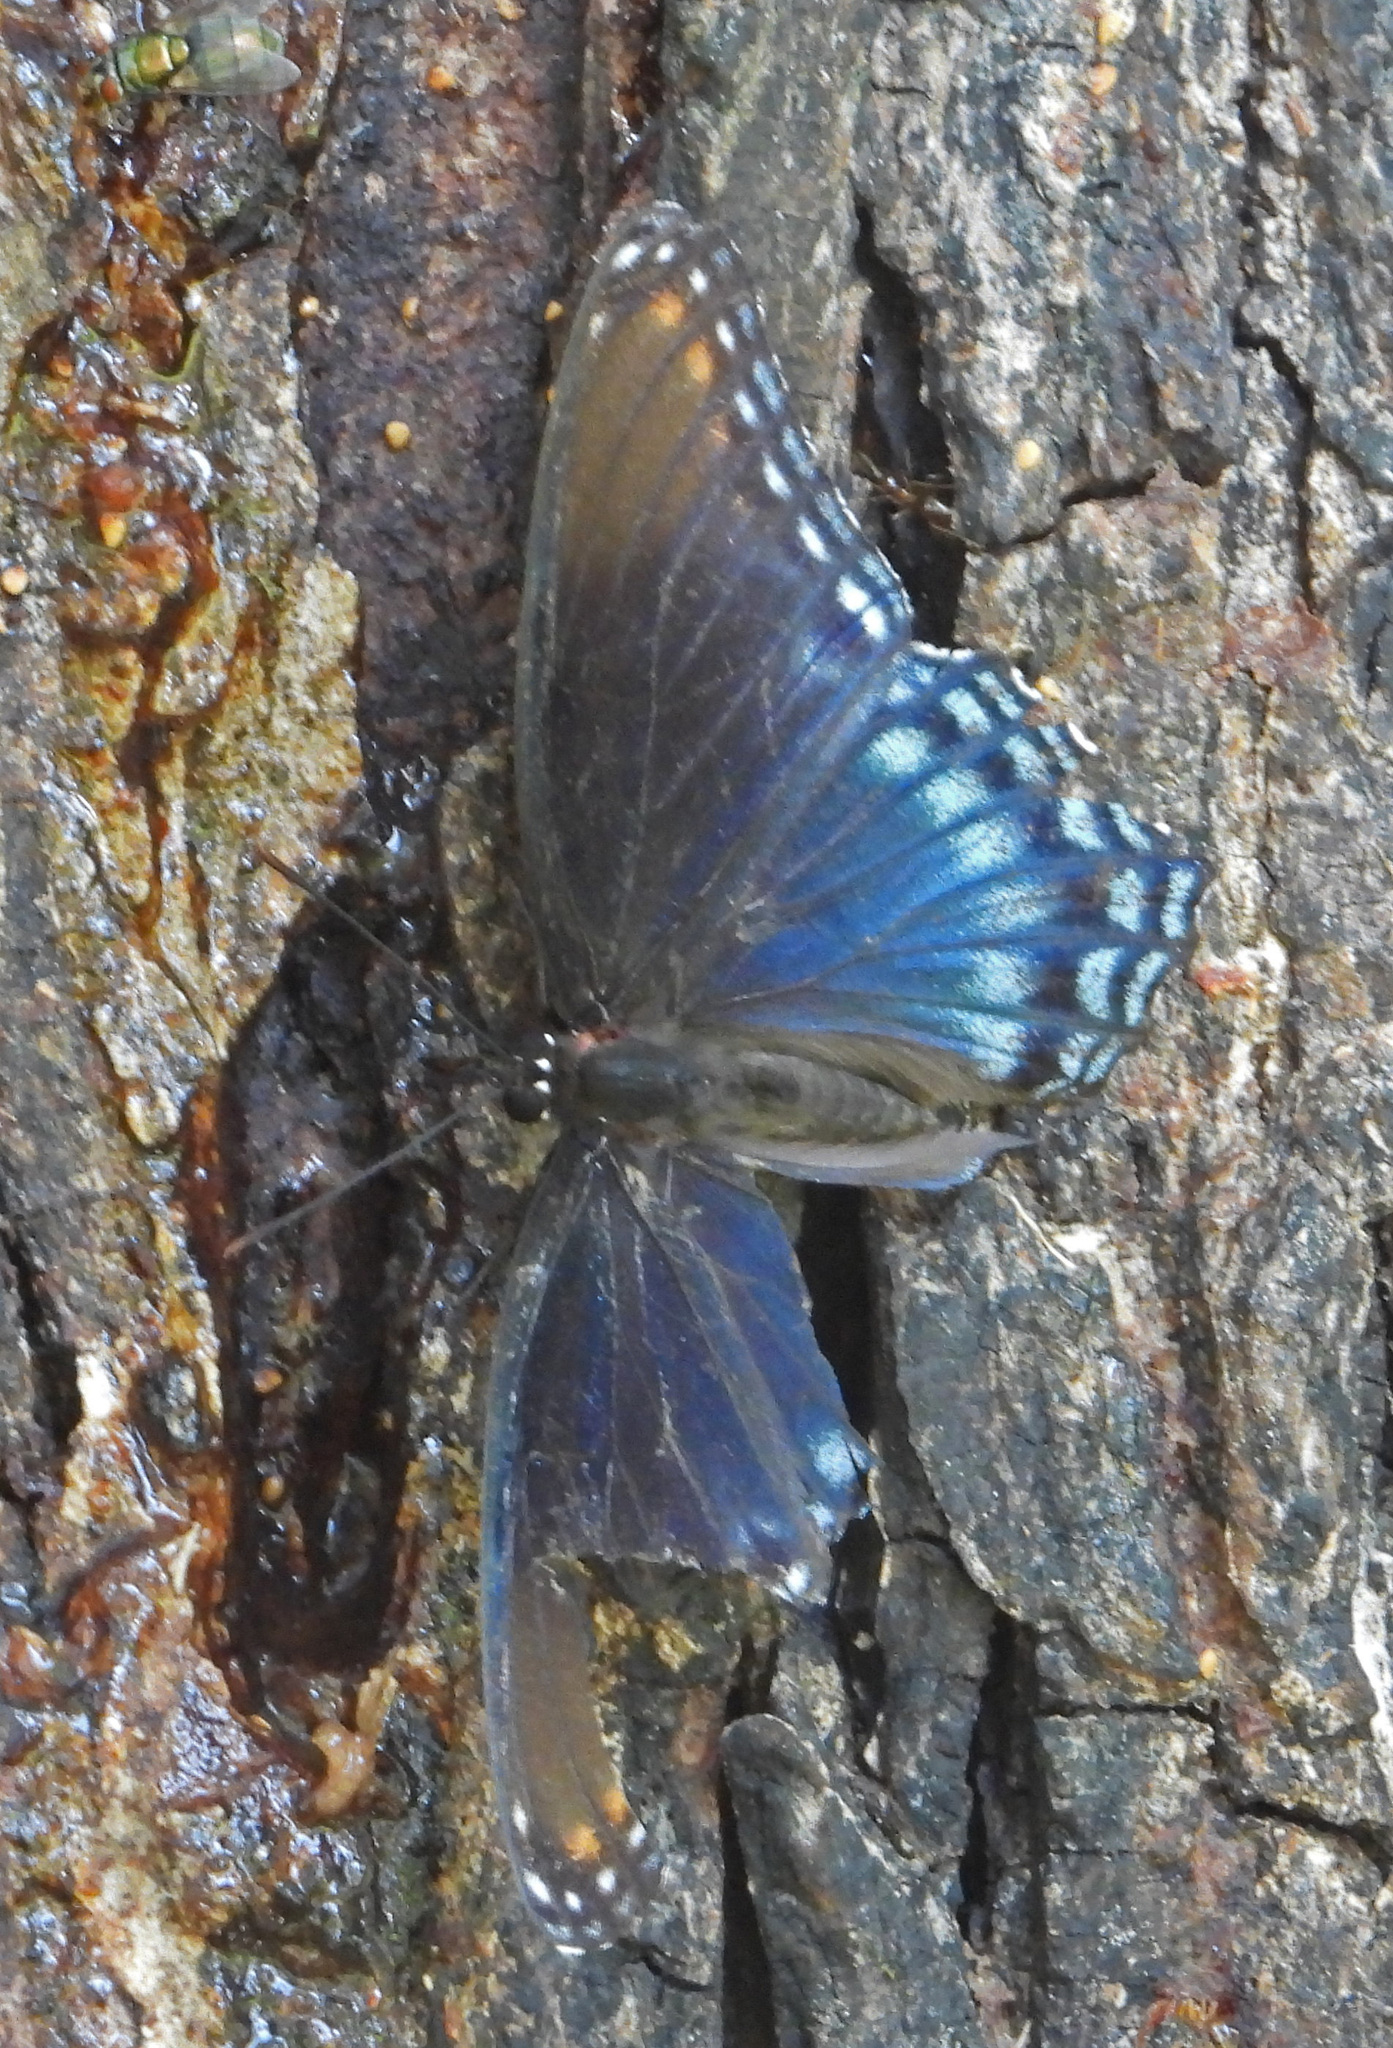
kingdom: Animalia
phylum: Arthropoda
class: Insecta
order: Lepidoptera
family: Nymphalidae
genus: Limenitis
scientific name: Limenitis astyanax
